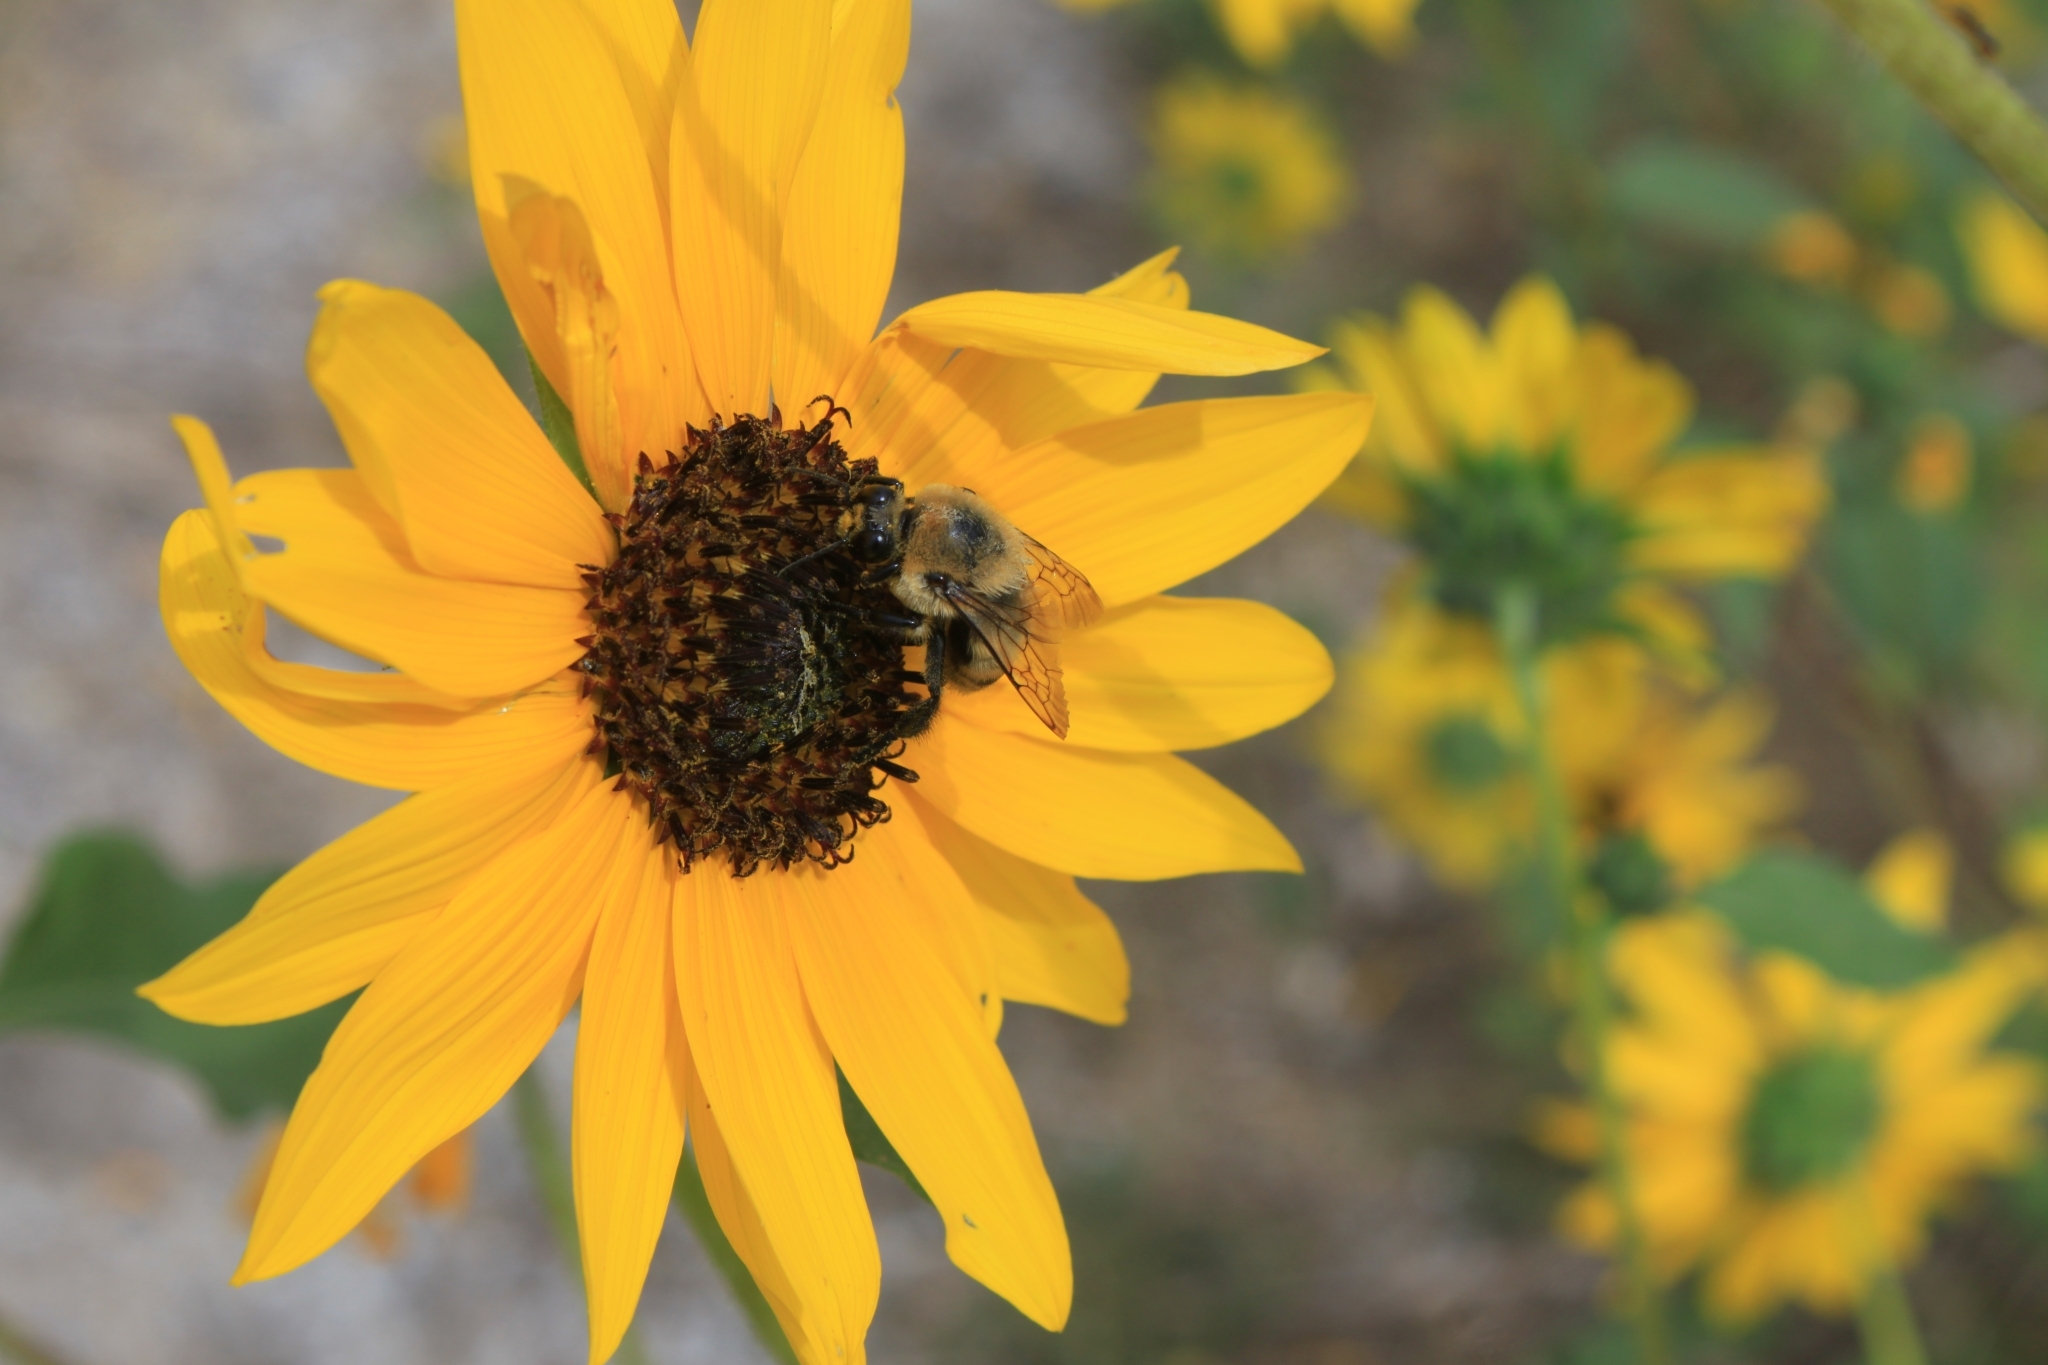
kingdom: Animalia
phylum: Arthropoda
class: Insecta
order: Hymenoptera
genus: Cullumanobombus
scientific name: Cullumanobombus
